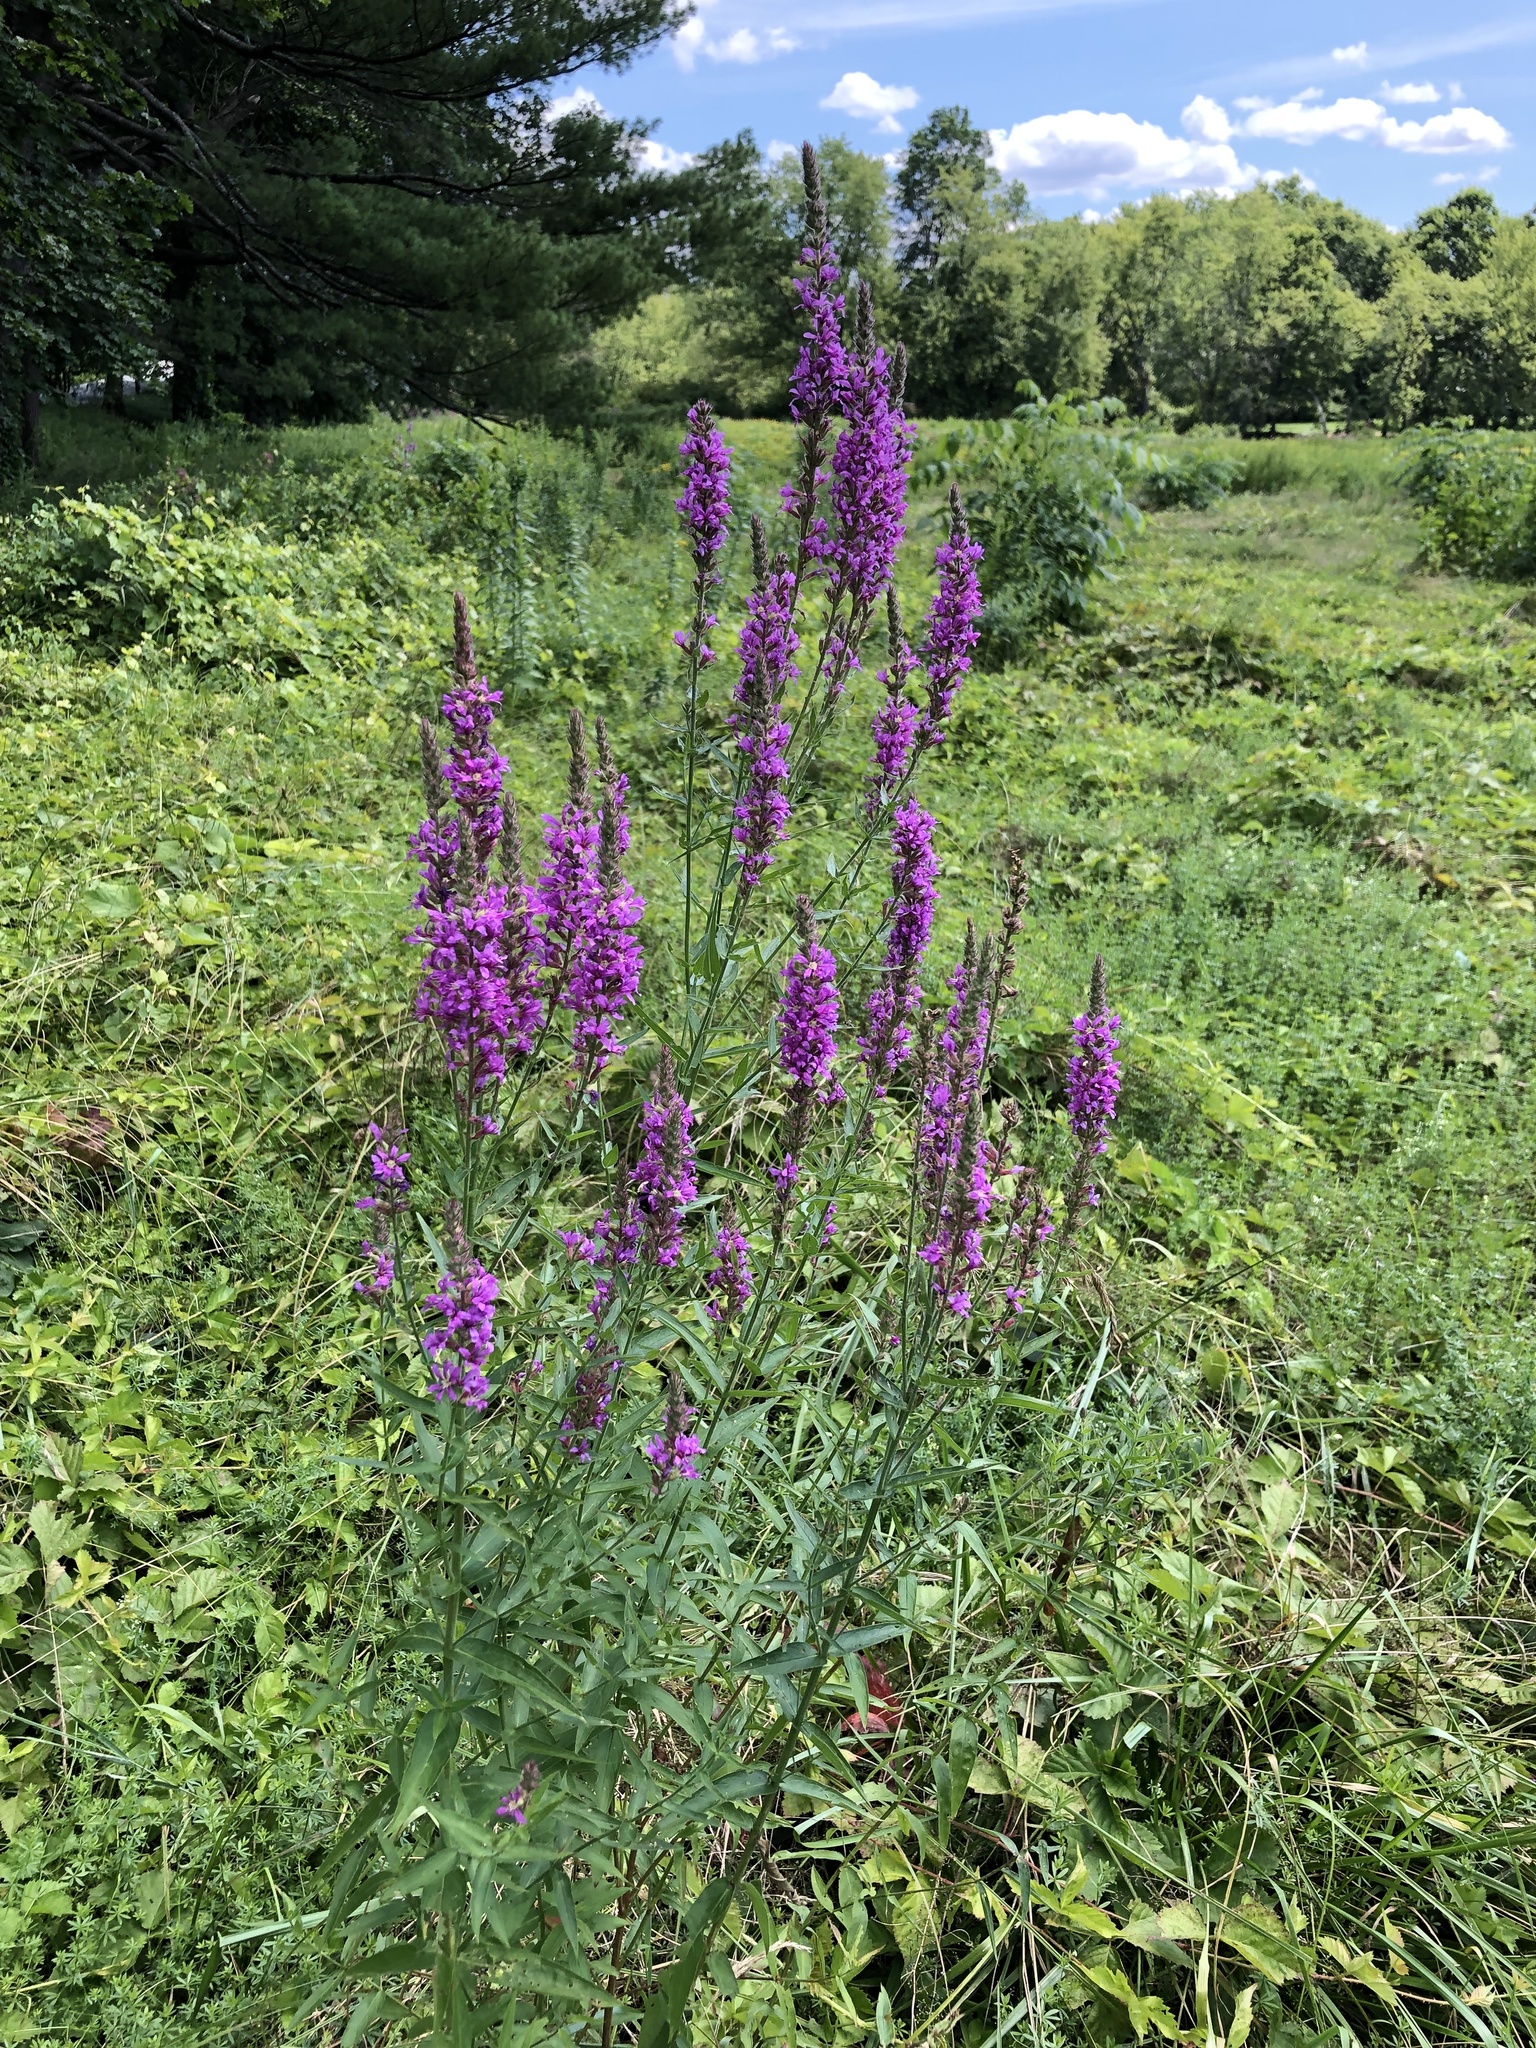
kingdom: Plantae
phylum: Tracheophyta
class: Magnoliopsida
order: Myrtales
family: Lythraceae
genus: Lythrum
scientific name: Lythrum salicaria
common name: Purple loosestrife
